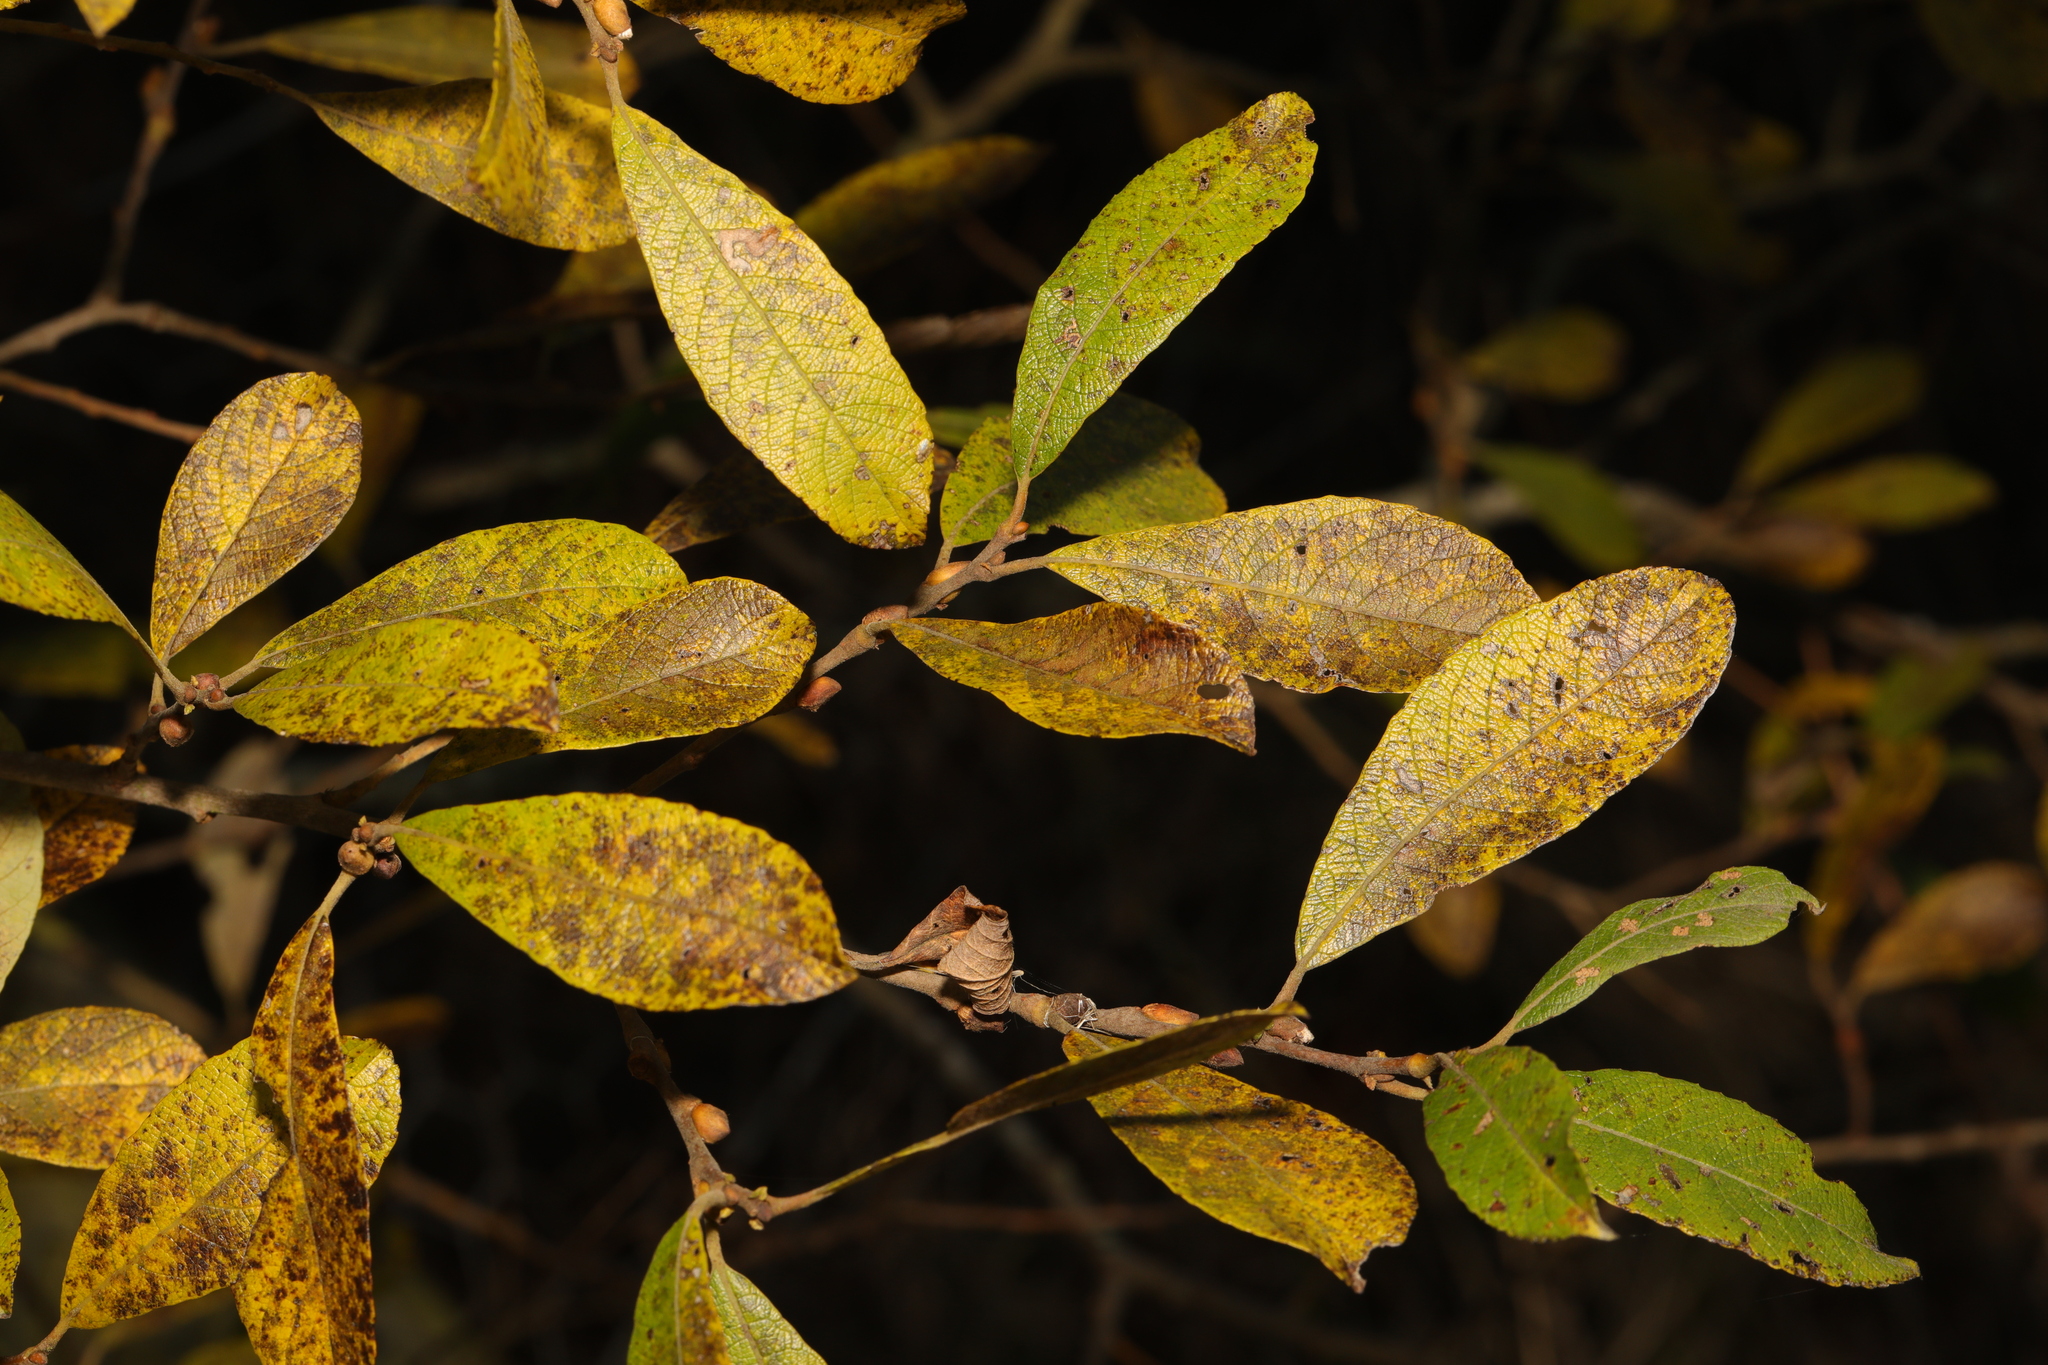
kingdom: Plantae
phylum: Tracheophyta
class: Magnoliopsida
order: Malpighiales
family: Salicaceae
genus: Salix
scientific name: Salix cinerea
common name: Common sallow
